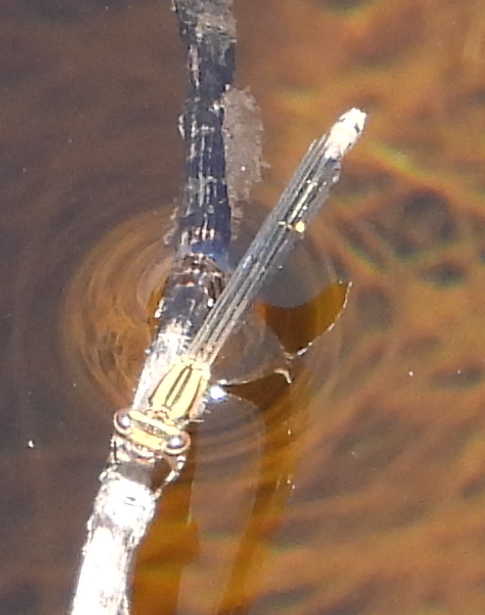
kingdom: Animalia
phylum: Arthropoda
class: Insecta
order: Odonata
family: Coenagrionidae
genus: Pseudagrion
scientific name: Pseudagrion furcigerum
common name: Palmiet sprite
